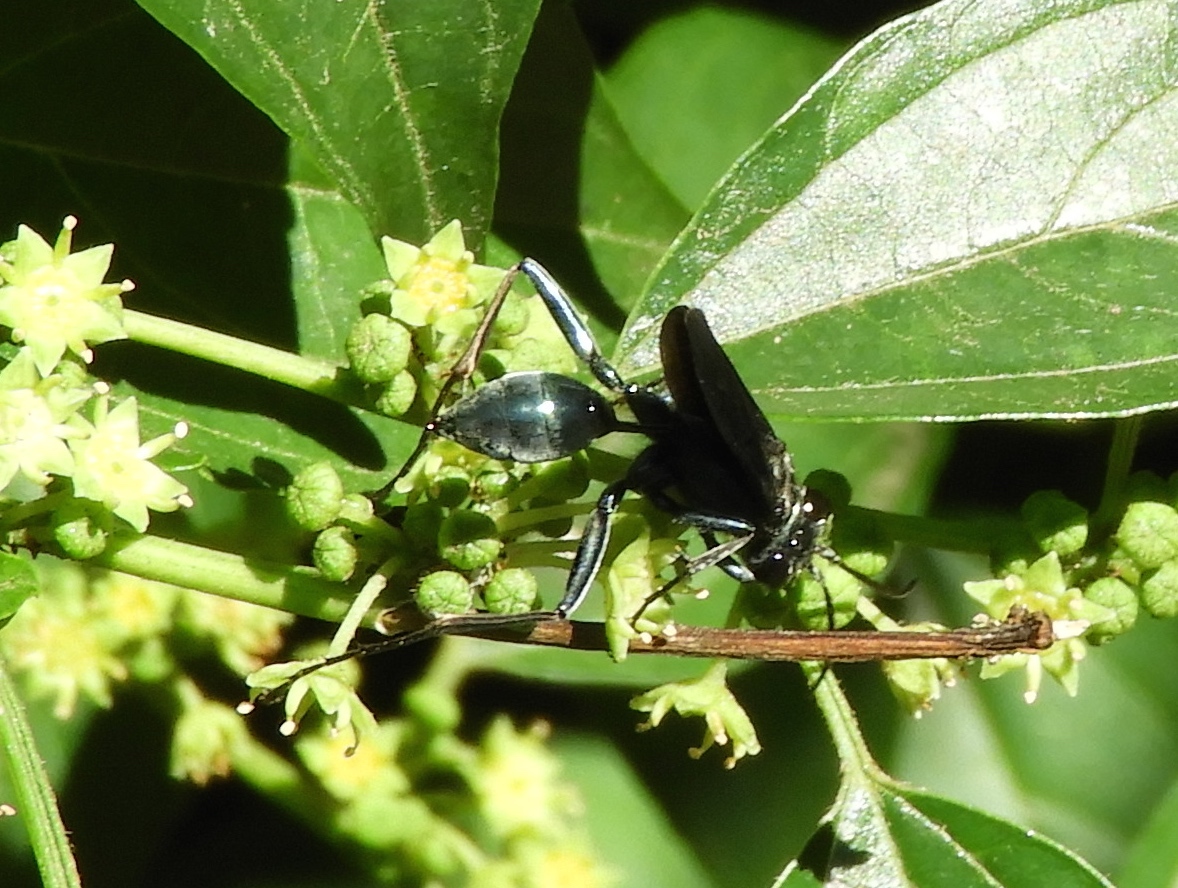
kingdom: Animalia
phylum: Arthropoda
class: Insecta
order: Hymenoptera
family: Sphecidae
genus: Chalybion
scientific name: Chalybion
